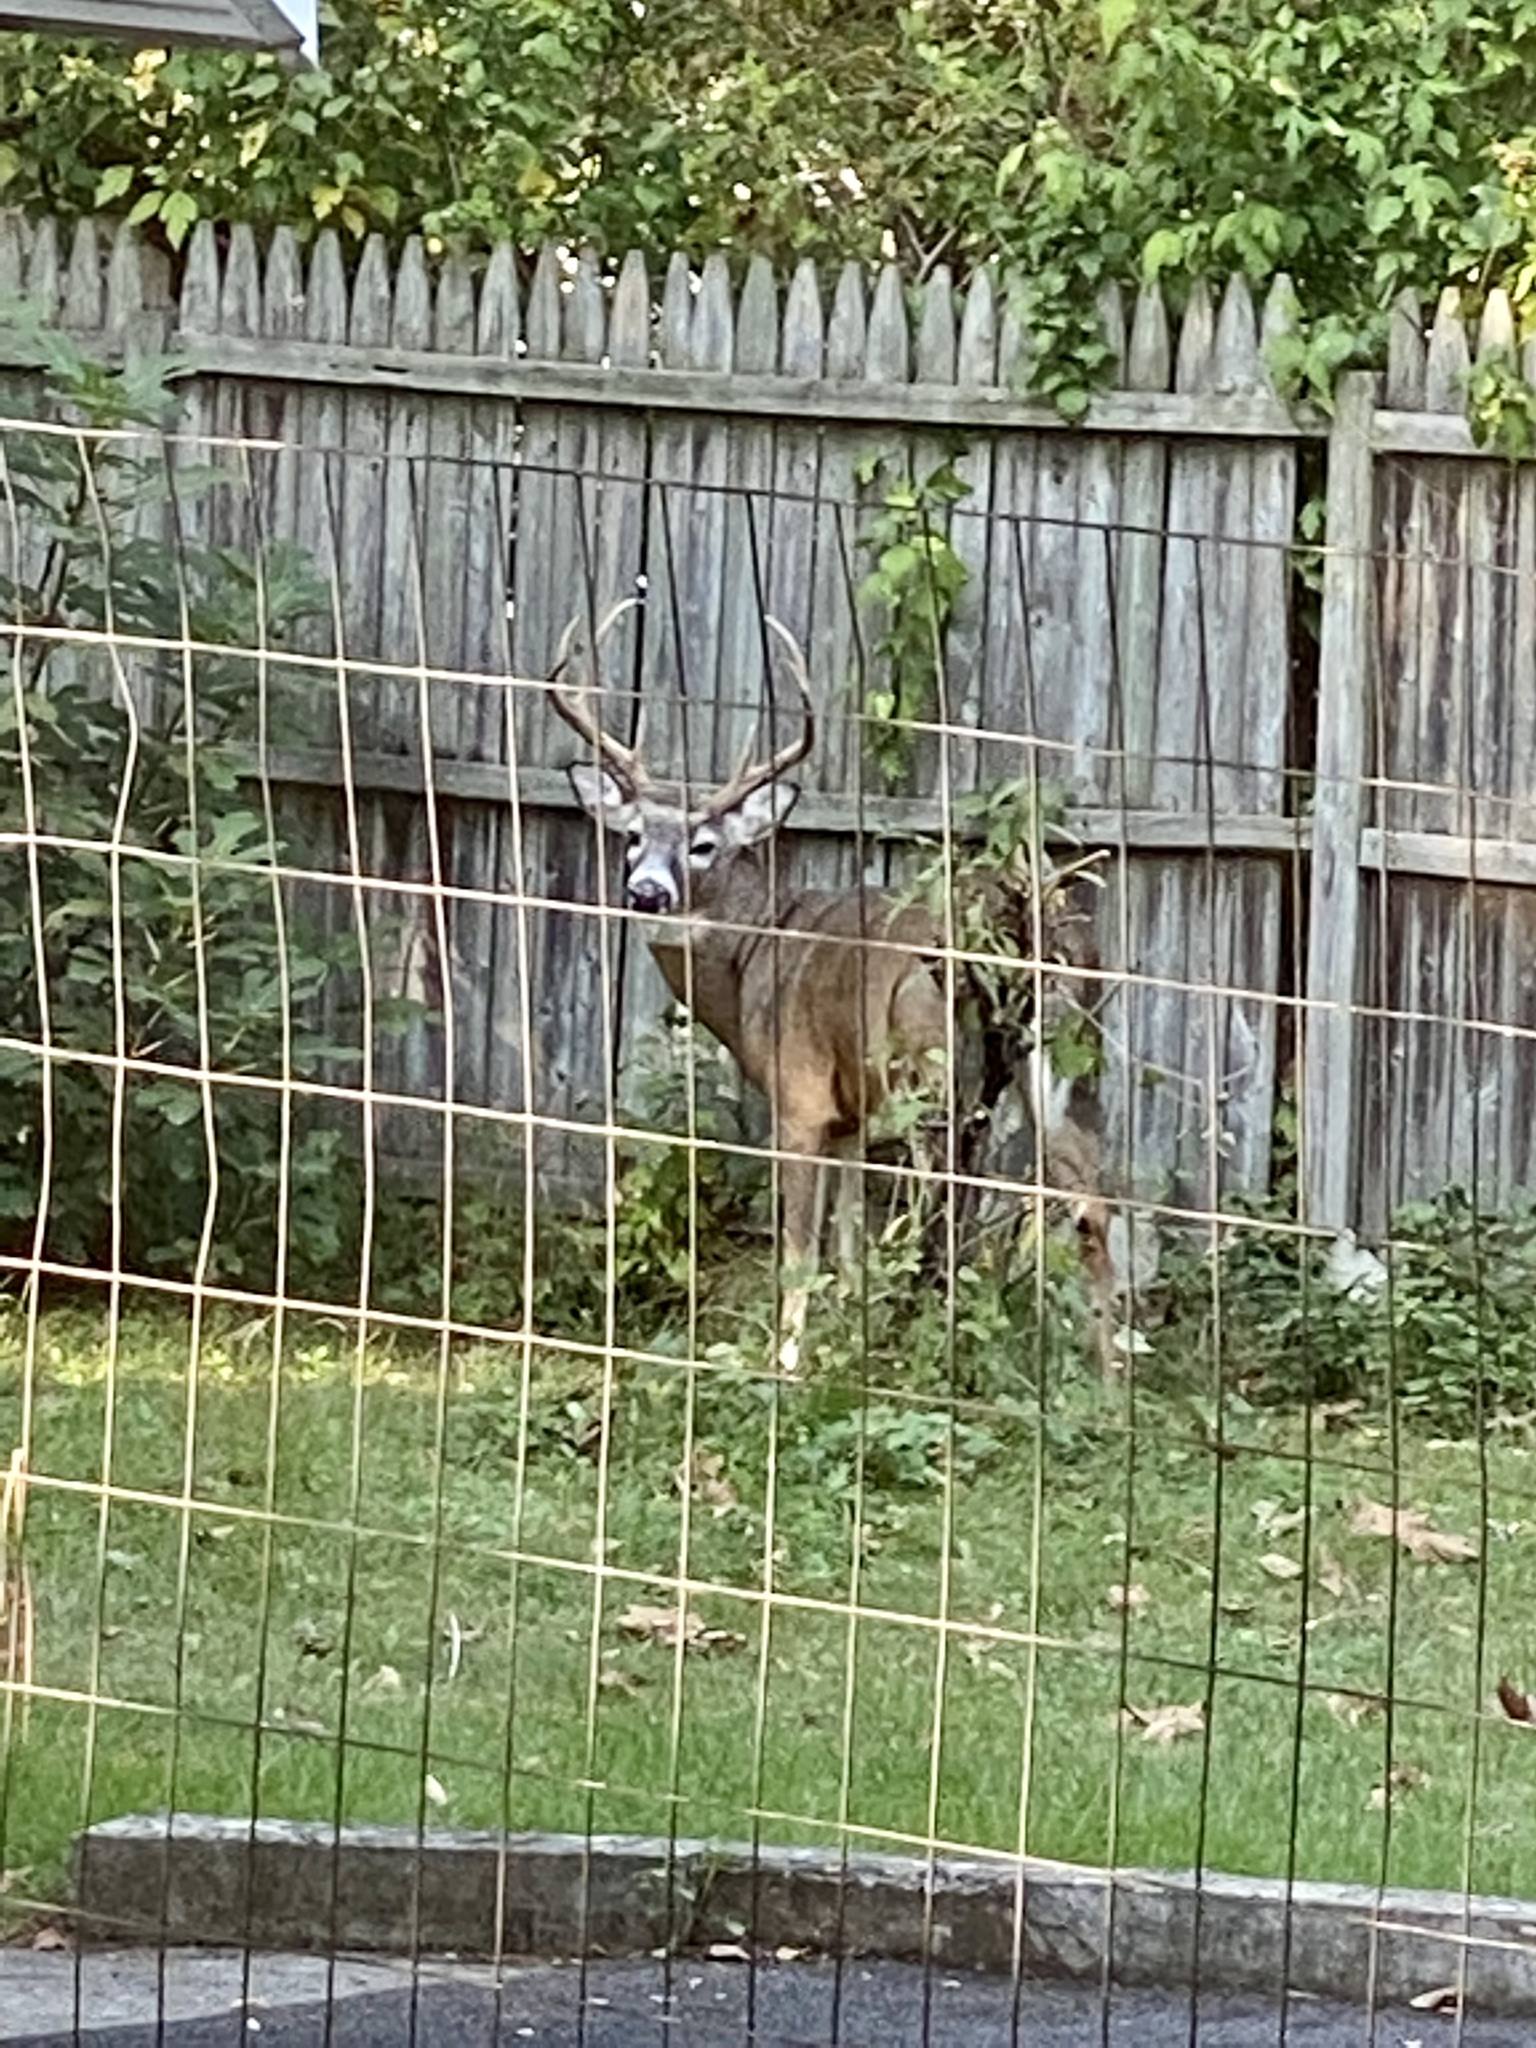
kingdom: Animalia
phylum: Chordata
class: Mammalia
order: Artiodactyla
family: Cervidae
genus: Odocoileus
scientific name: Odocoileus virginianus
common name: White-tailed deer
